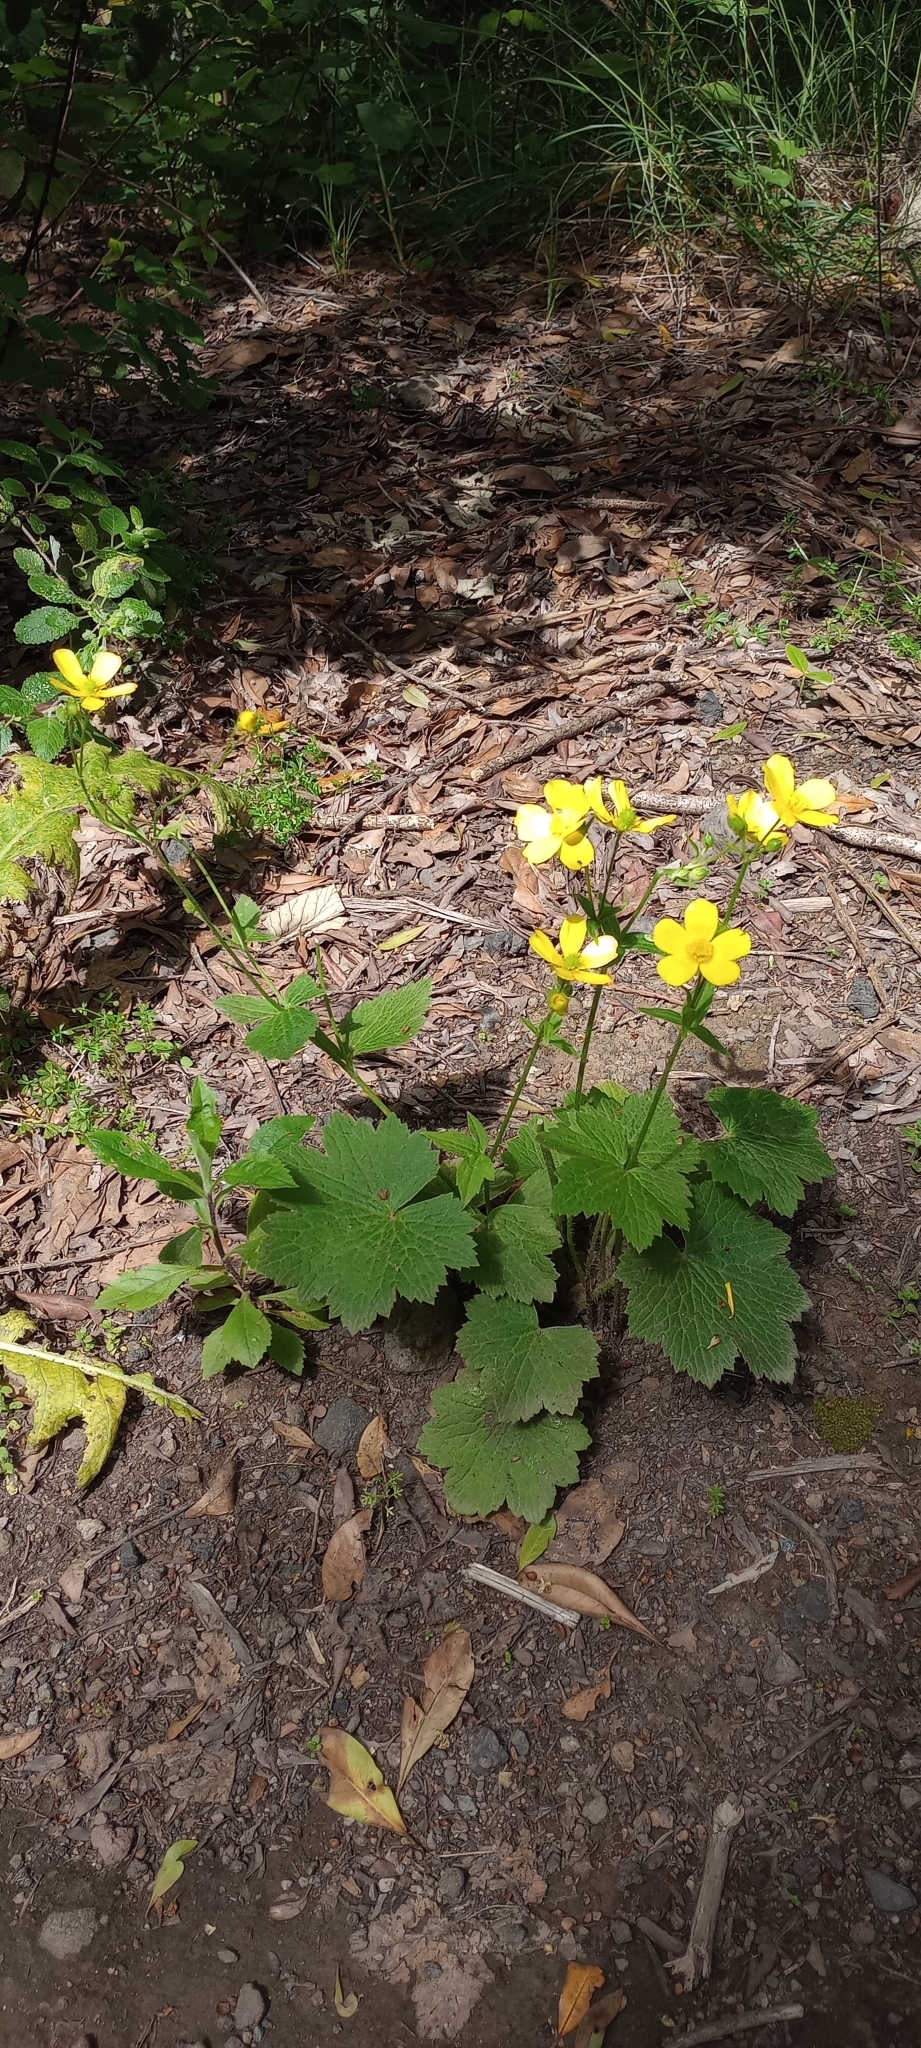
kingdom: Plantae
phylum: Tracheophyta
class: Magnoliopsida
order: Ranunculales
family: Ranunculaceae
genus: Ranunculus
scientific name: Ranunculus cortusifolius
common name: Azores buttercup
